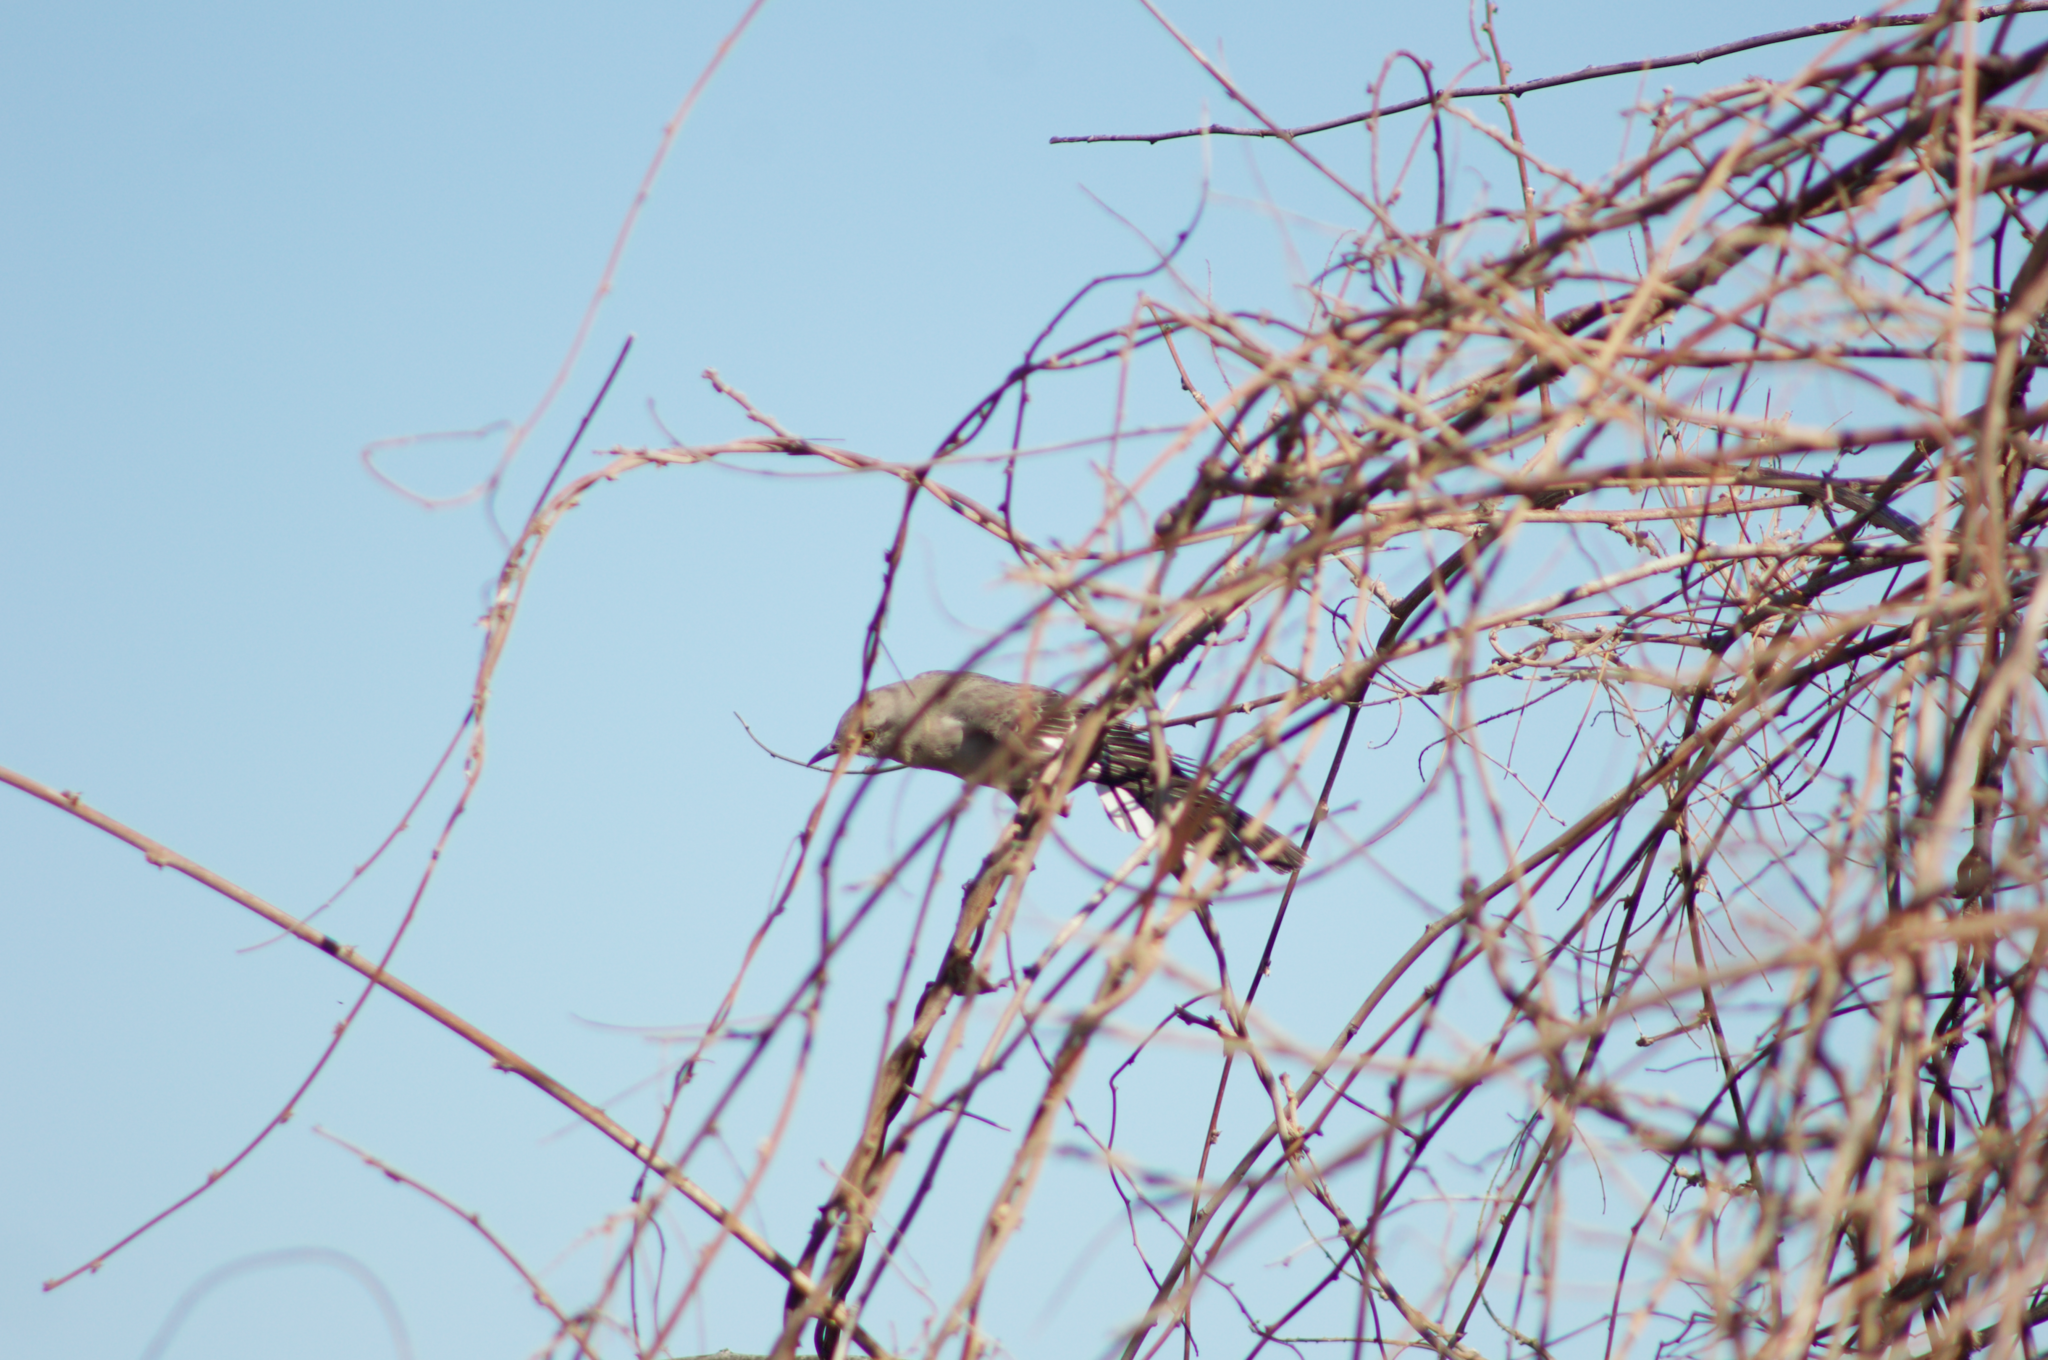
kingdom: Animalia
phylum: Chordata
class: Aves
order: Passeriformes
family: Mimidae
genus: Mimus
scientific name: Mimus polyglottos
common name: Northern mockingbird
